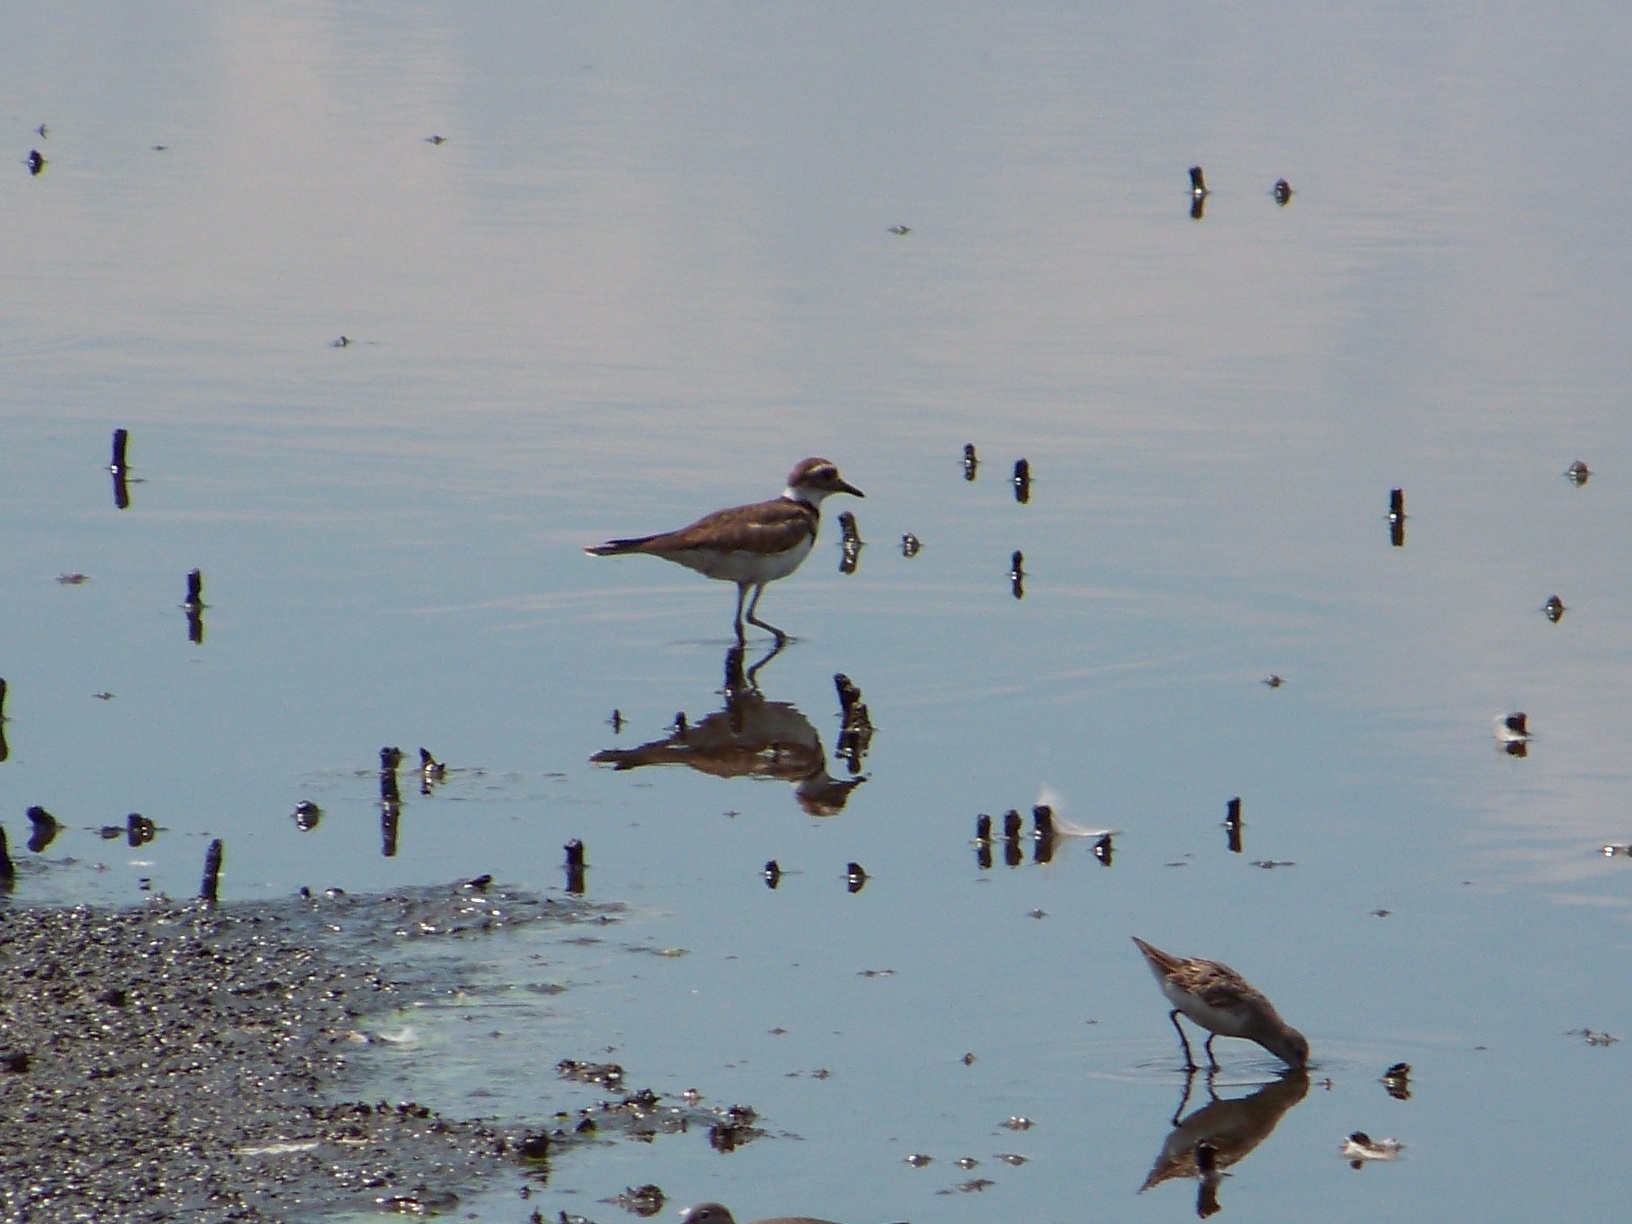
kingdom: Animalia
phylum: Chordata
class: Aves
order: Charadriiformes
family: Charadriidae
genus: Charadrius
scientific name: Charadrius vociferus
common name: Killdeer
